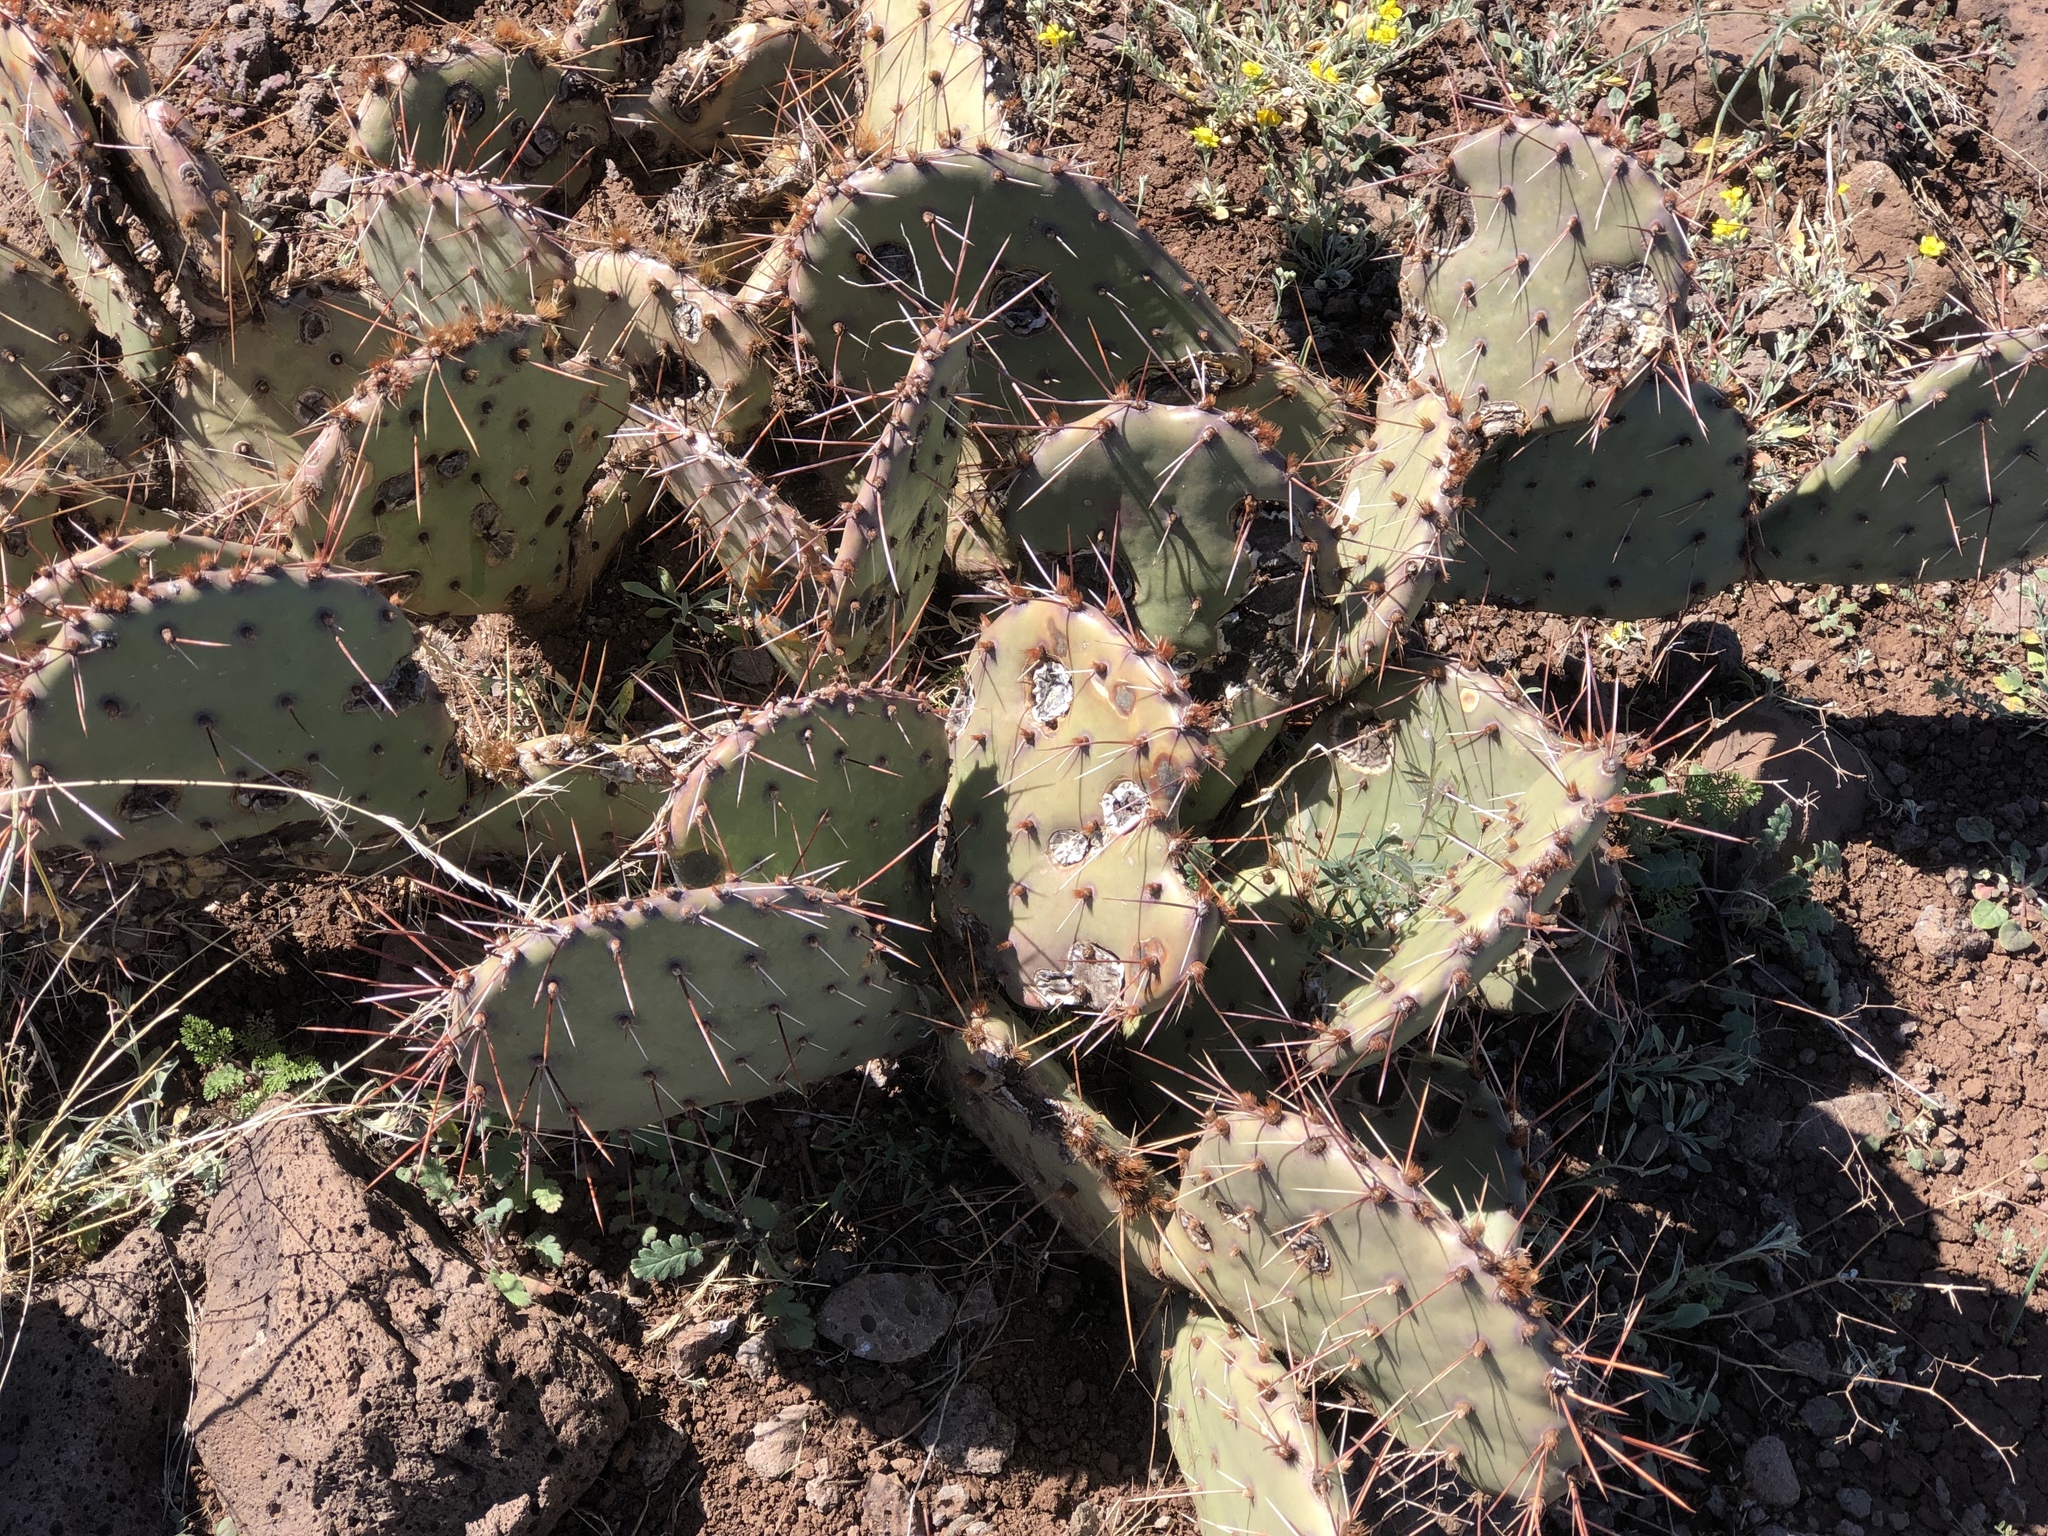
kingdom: Plantae
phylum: Tracheophyta
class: Magnoliopsida
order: Caryophyllales
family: Cactaceae
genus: Opuntia
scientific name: Opuntia phaeacantha
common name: New mexico prickly-pear
